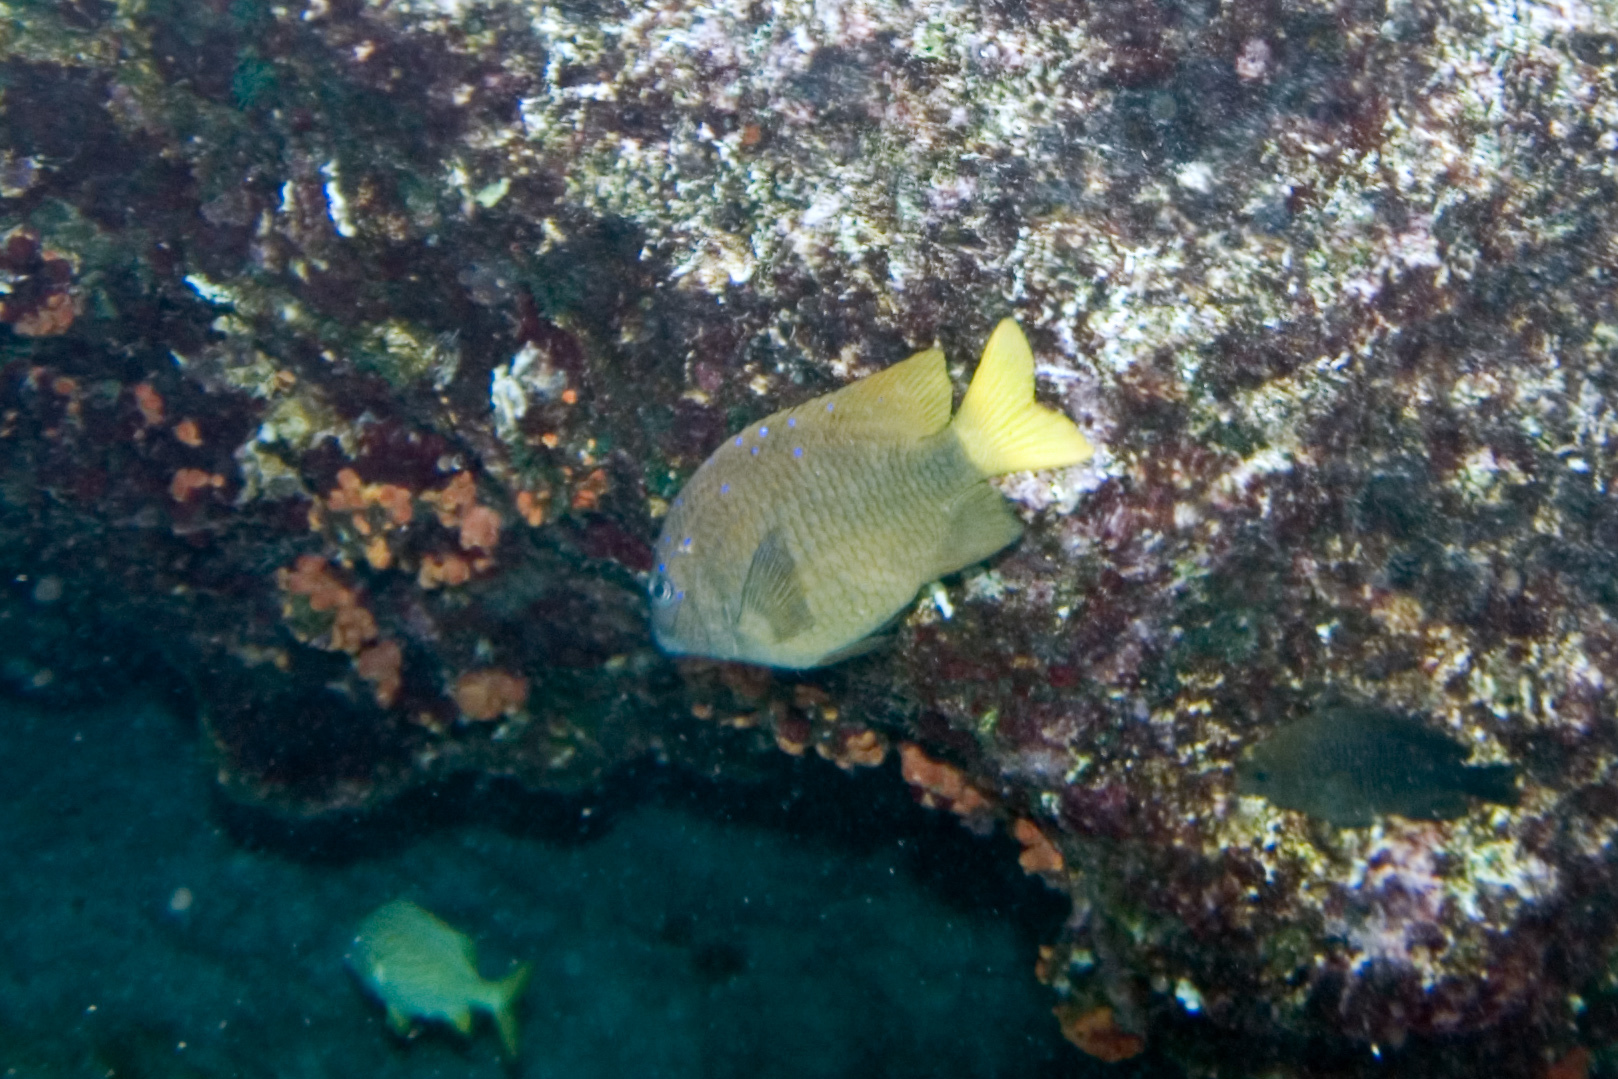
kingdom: Animalia
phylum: Chordata
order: Perciformes
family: Pomacentridae
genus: Microspathodon
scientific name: Microspathodon chrysurus
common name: Yellowtail damselfish
